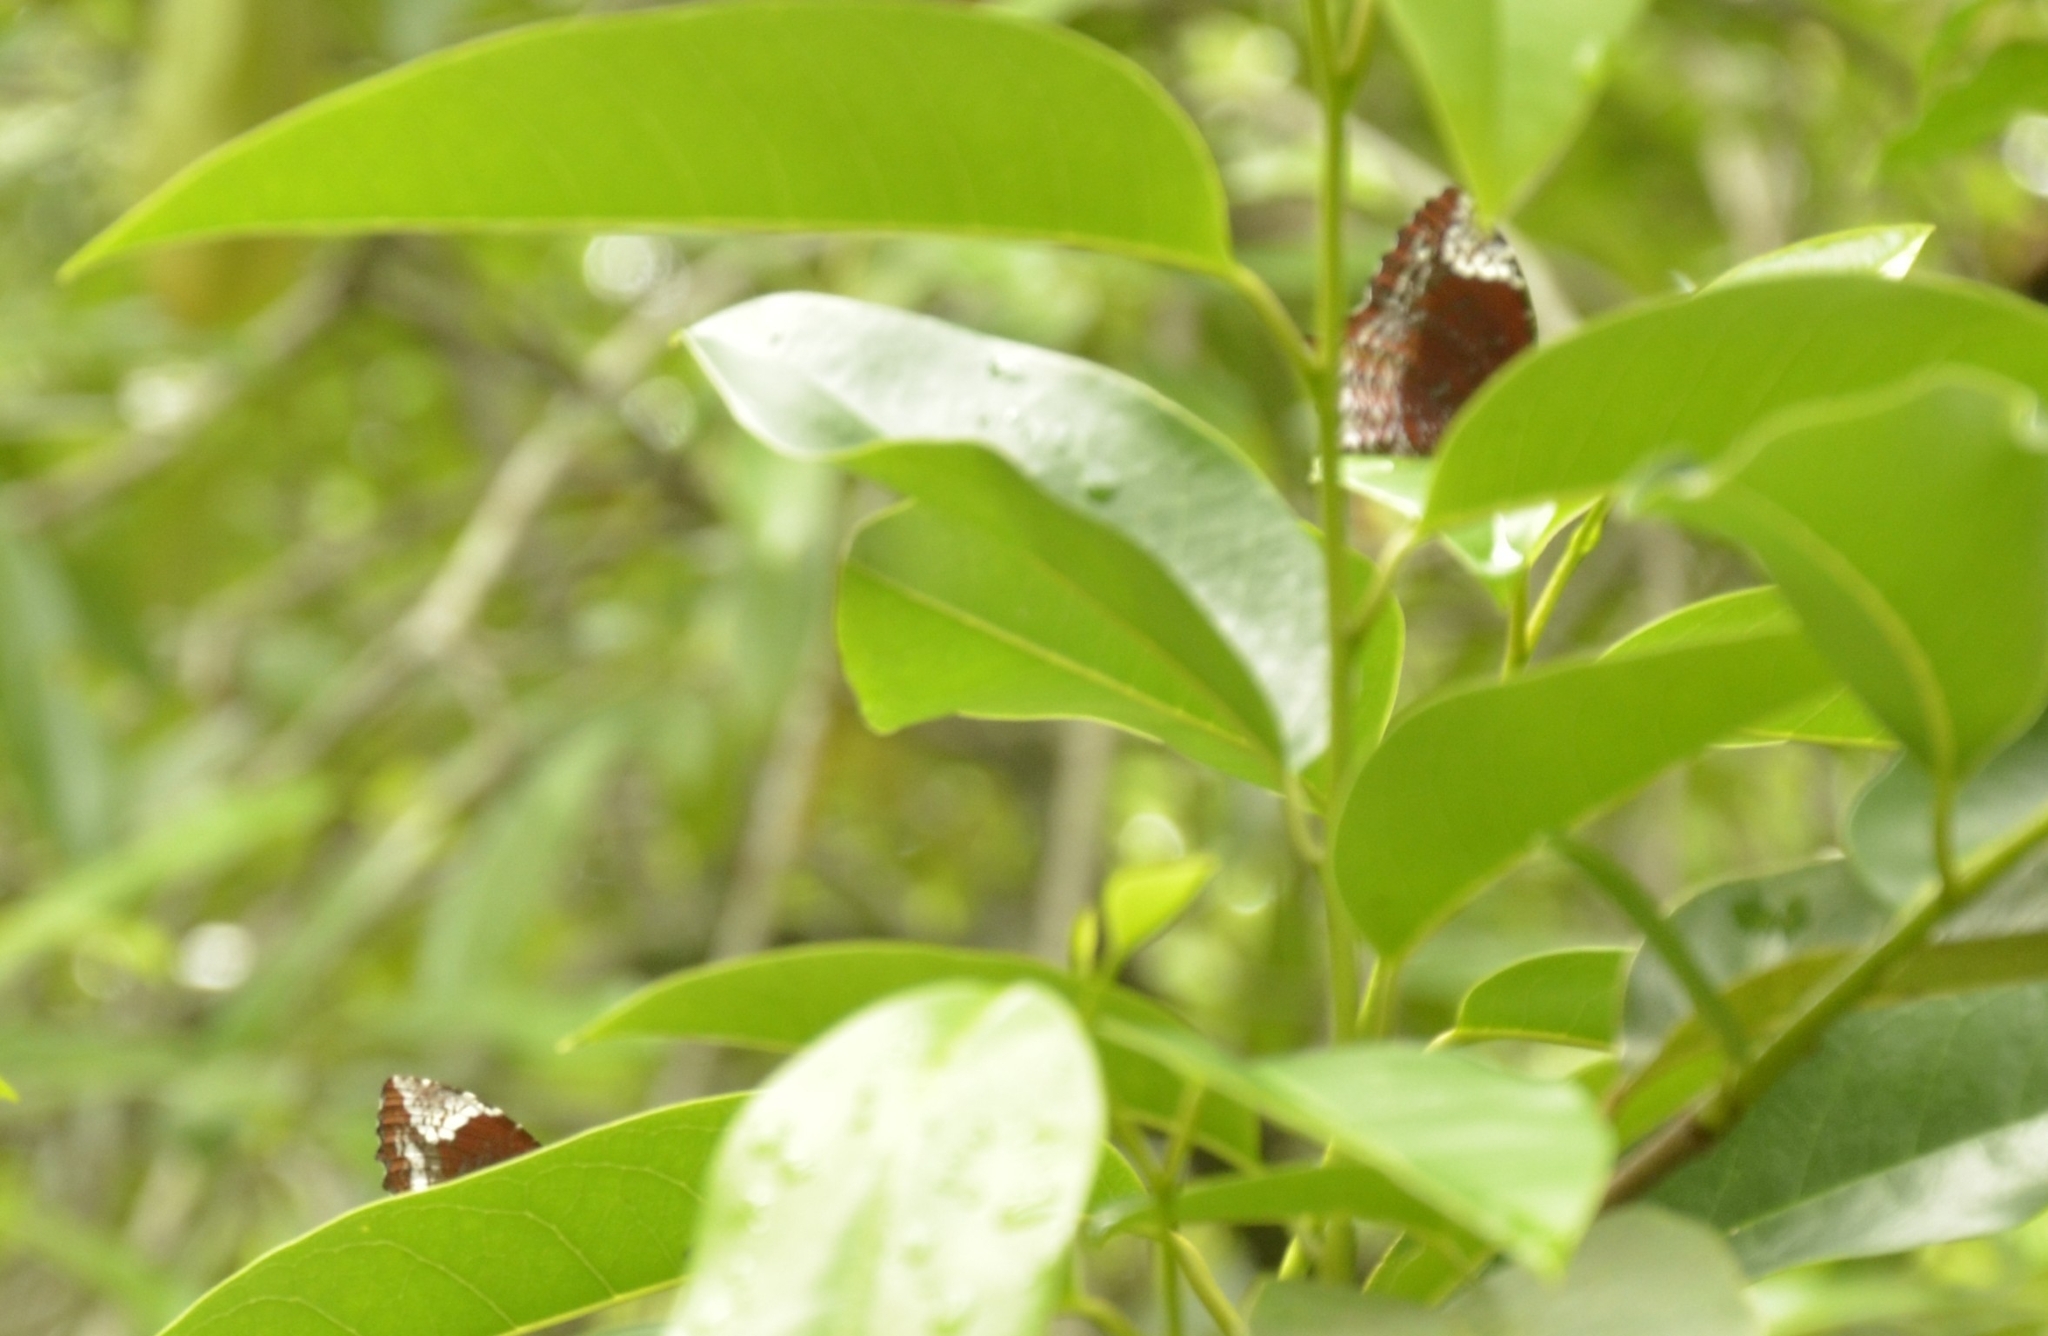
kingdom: Animalia
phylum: Arthropoda
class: Insecta
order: Lepidoptera
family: Nymphalidae
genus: Elymnias
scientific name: Elymnias caudata
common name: Tailed palmfly
